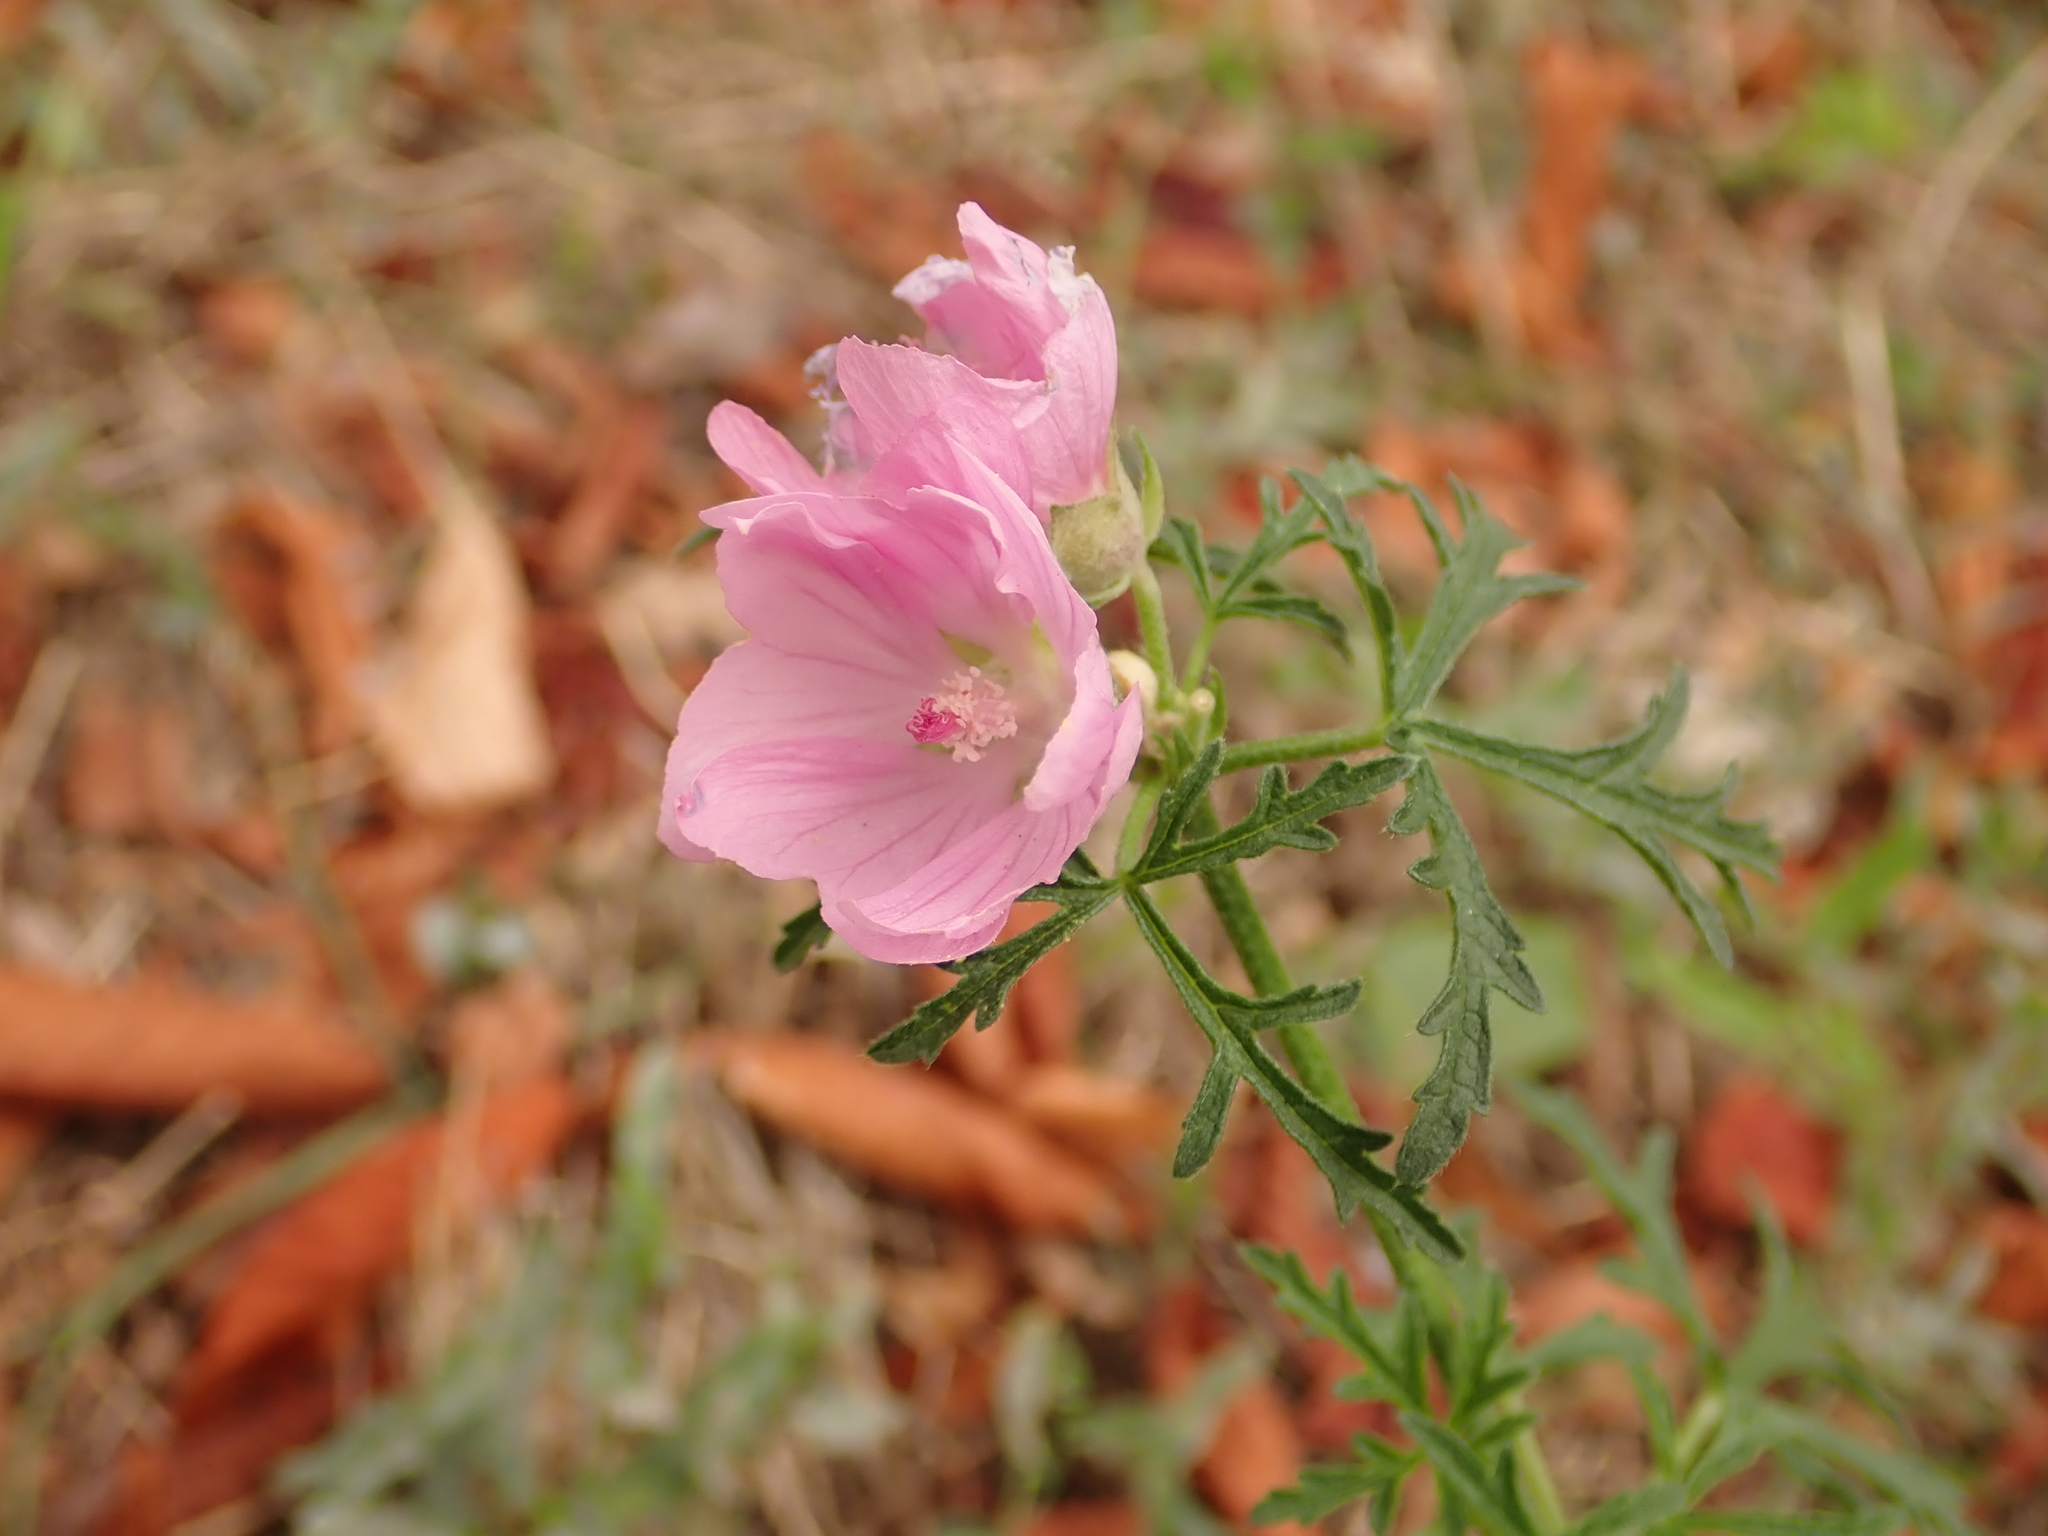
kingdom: Plantae
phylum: Tracheophyta
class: Magnoliopsida
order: Malvales
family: Malvaceae
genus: Malva
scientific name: Malva alcea
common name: Greater musk-mallow
